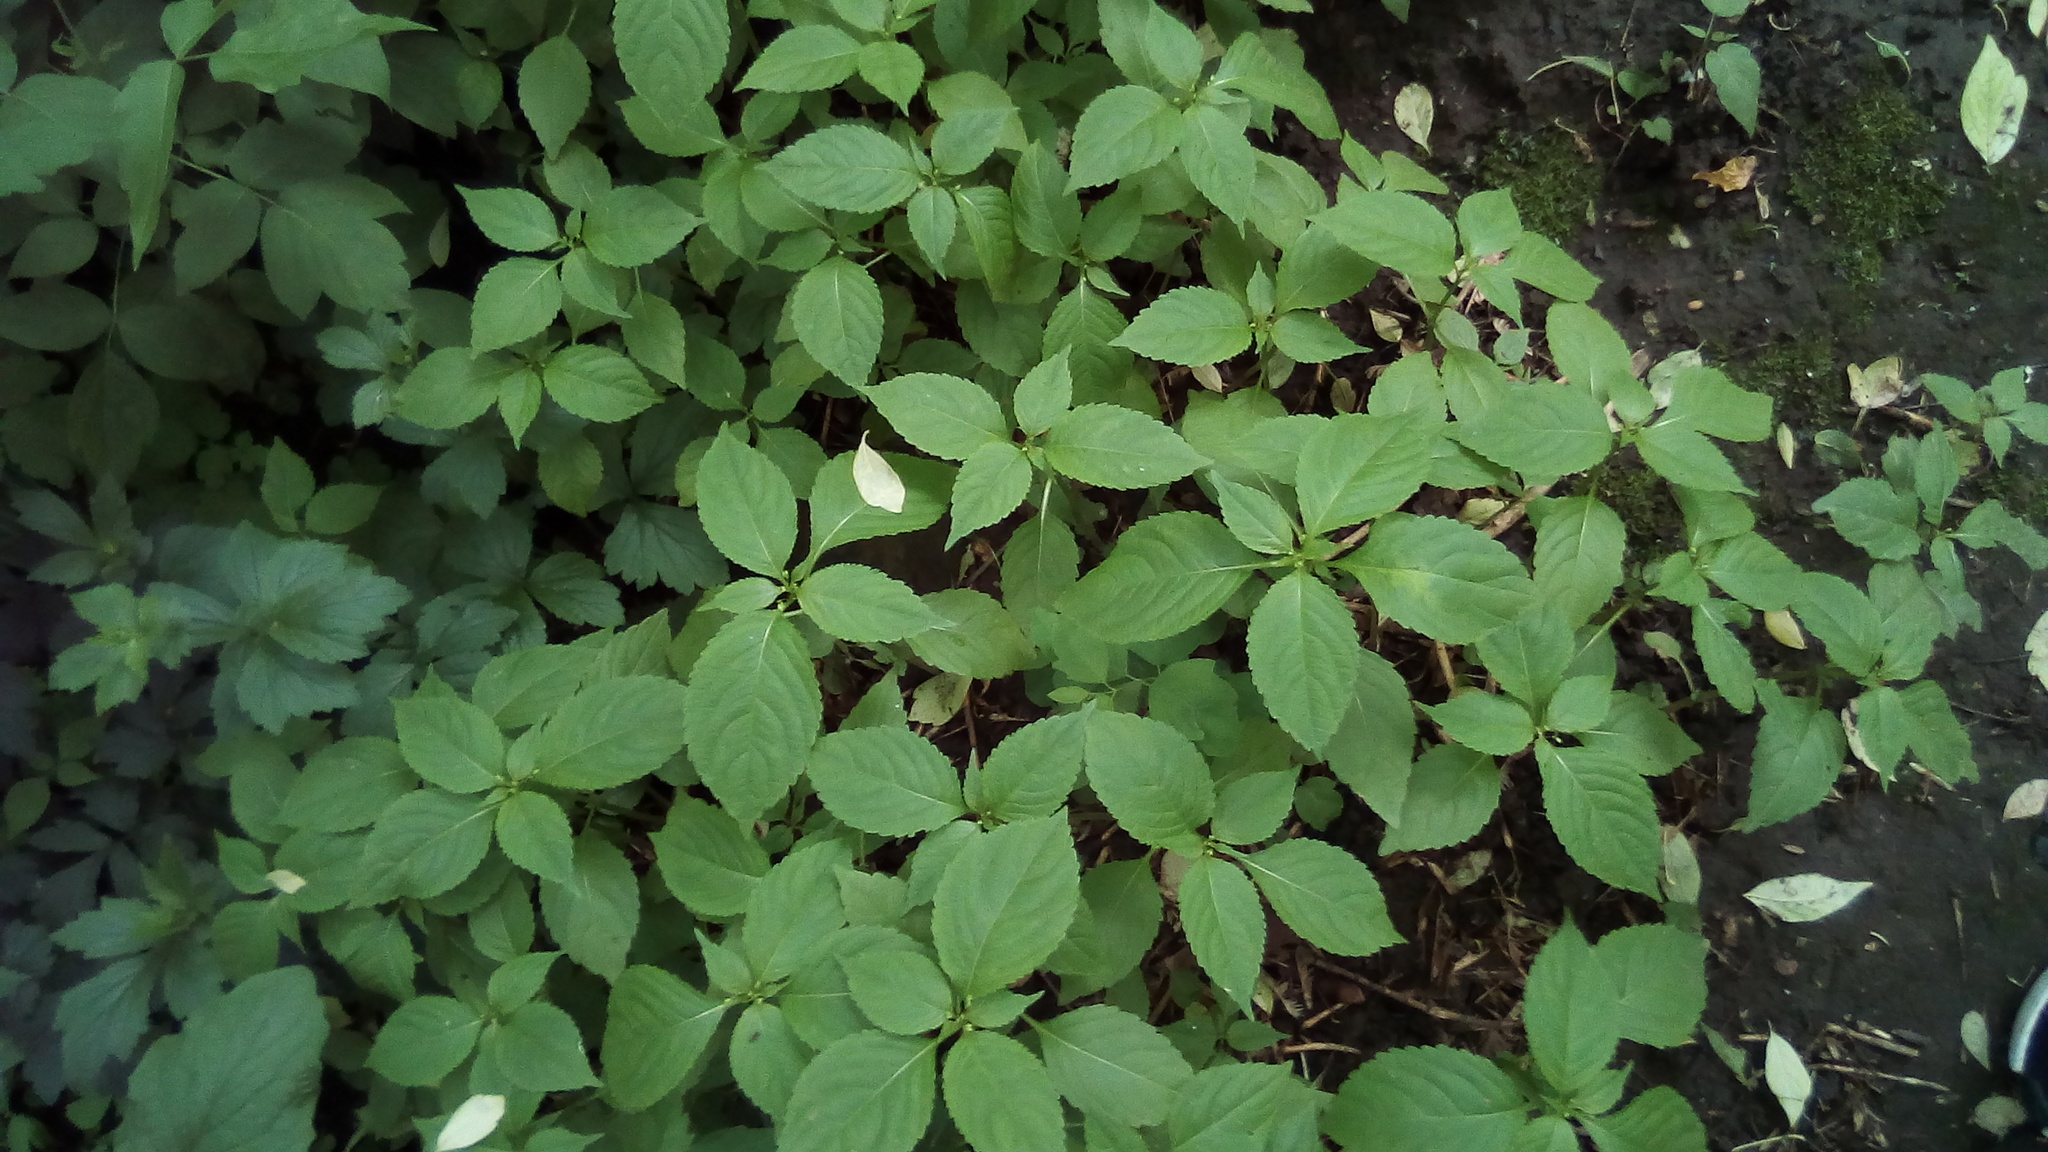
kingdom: Plantae
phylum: Tracheophyta
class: Magnoliopsida
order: Ericales
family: Balsaminaceae
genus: Impatiens
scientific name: Impatiens parviflora
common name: Small balsam
